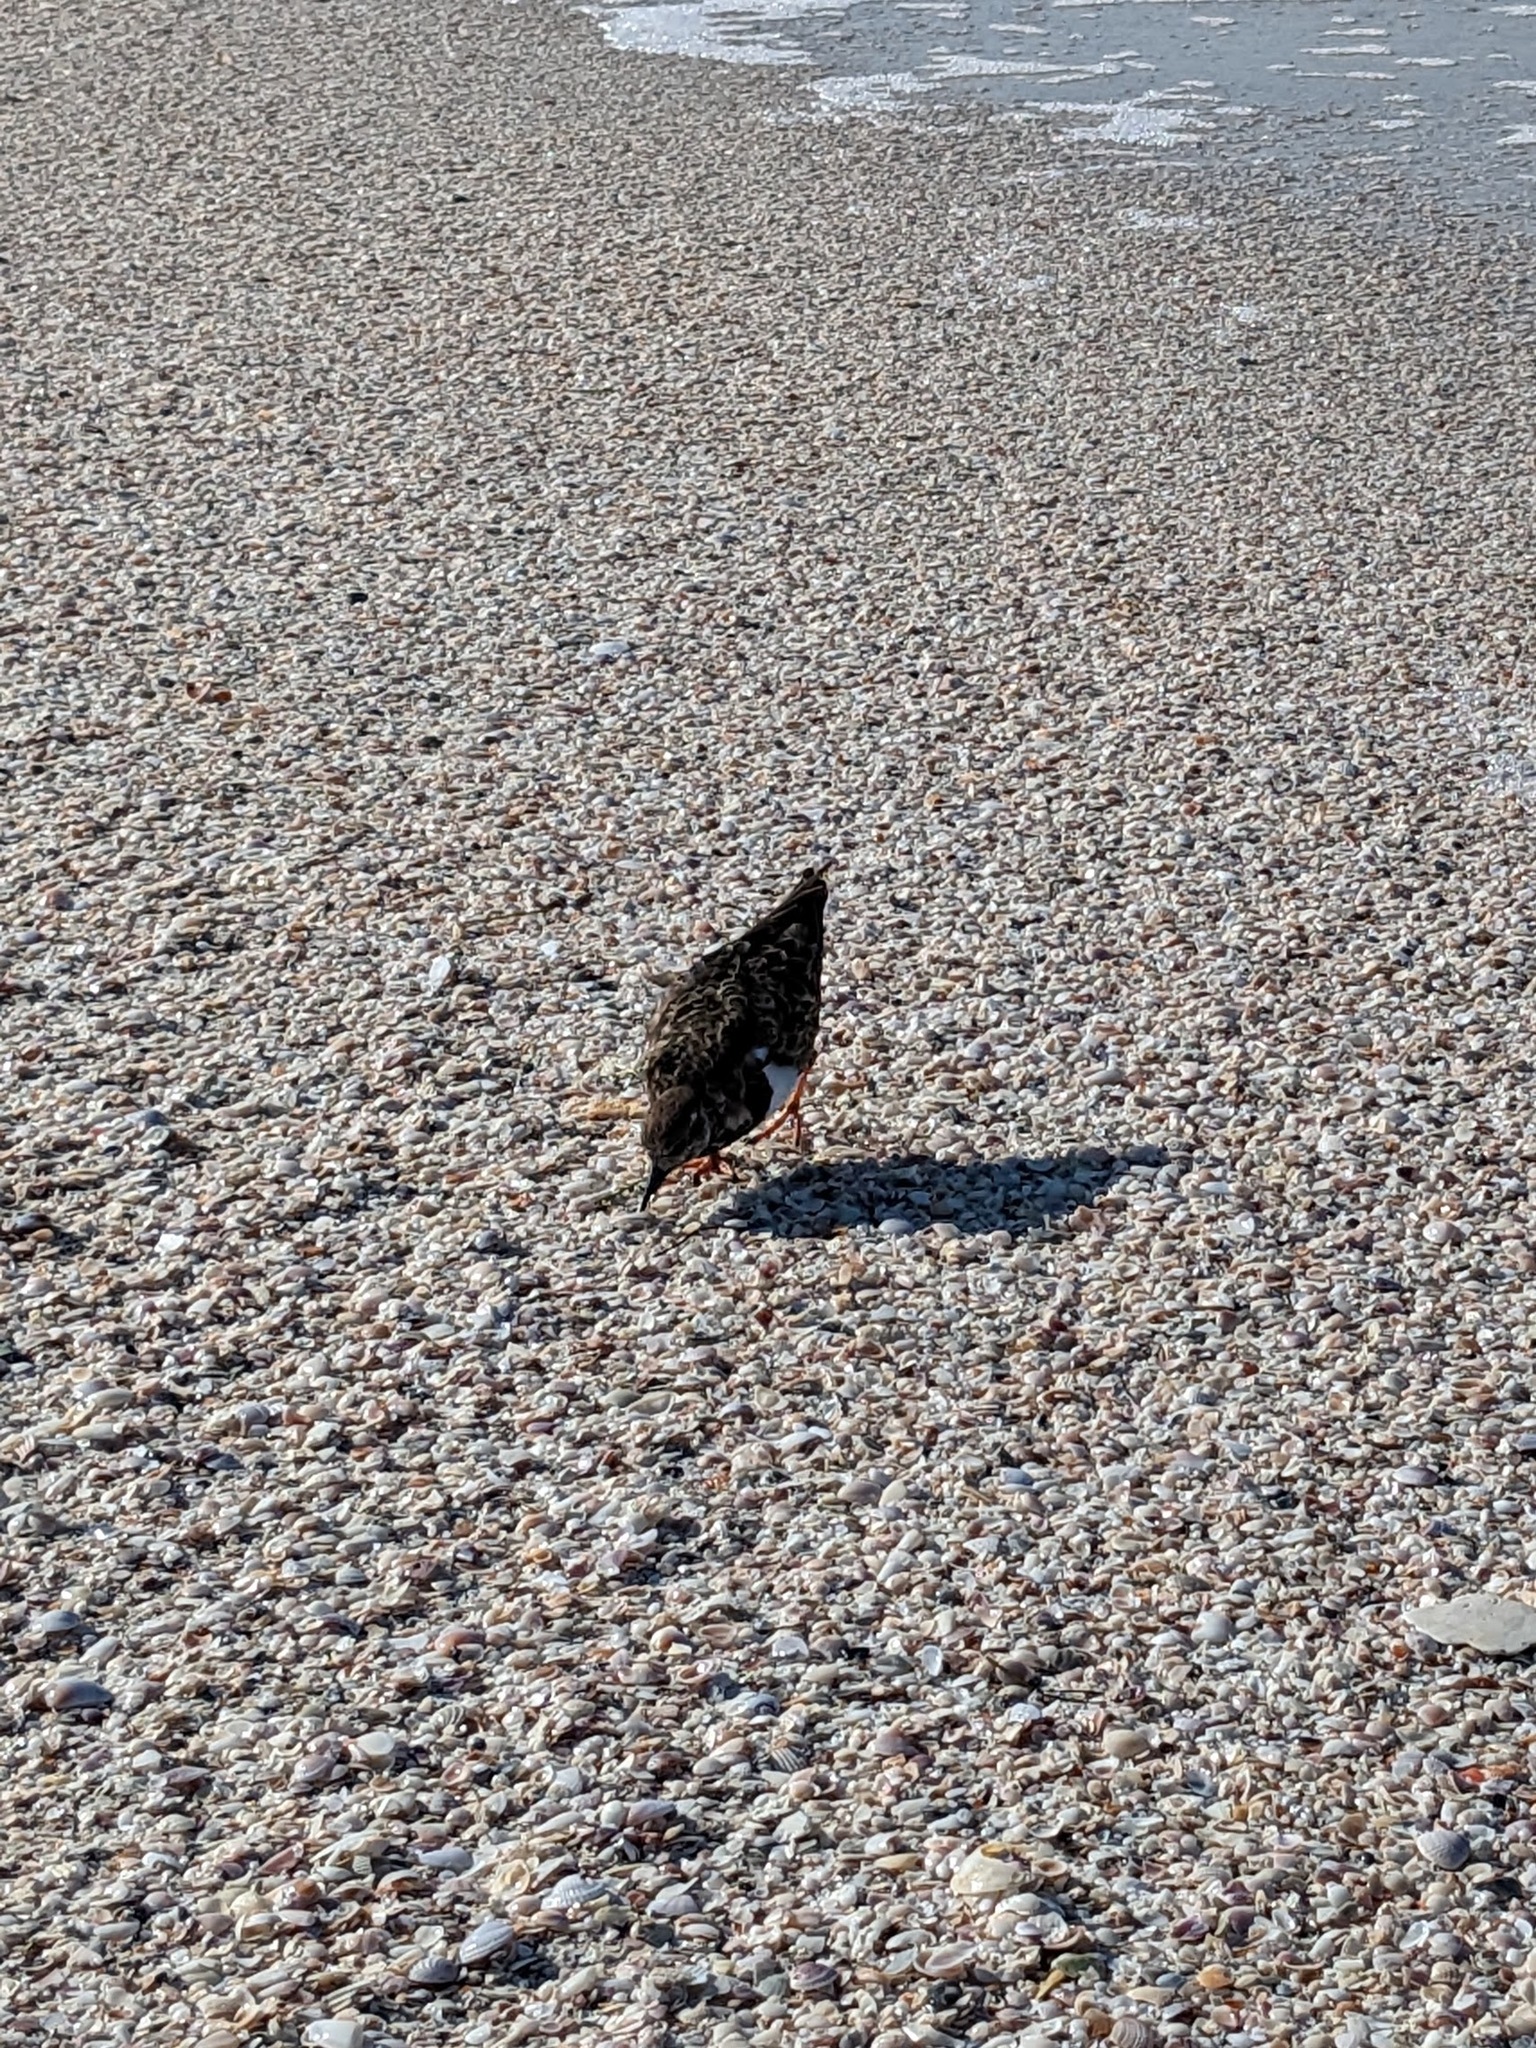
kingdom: Animalia
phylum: Chordata
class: Aves
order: Charadriiformes
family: Scolopacidae
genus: Arenaria
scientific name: Arenaria interpres
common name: Ruddy turnstone
